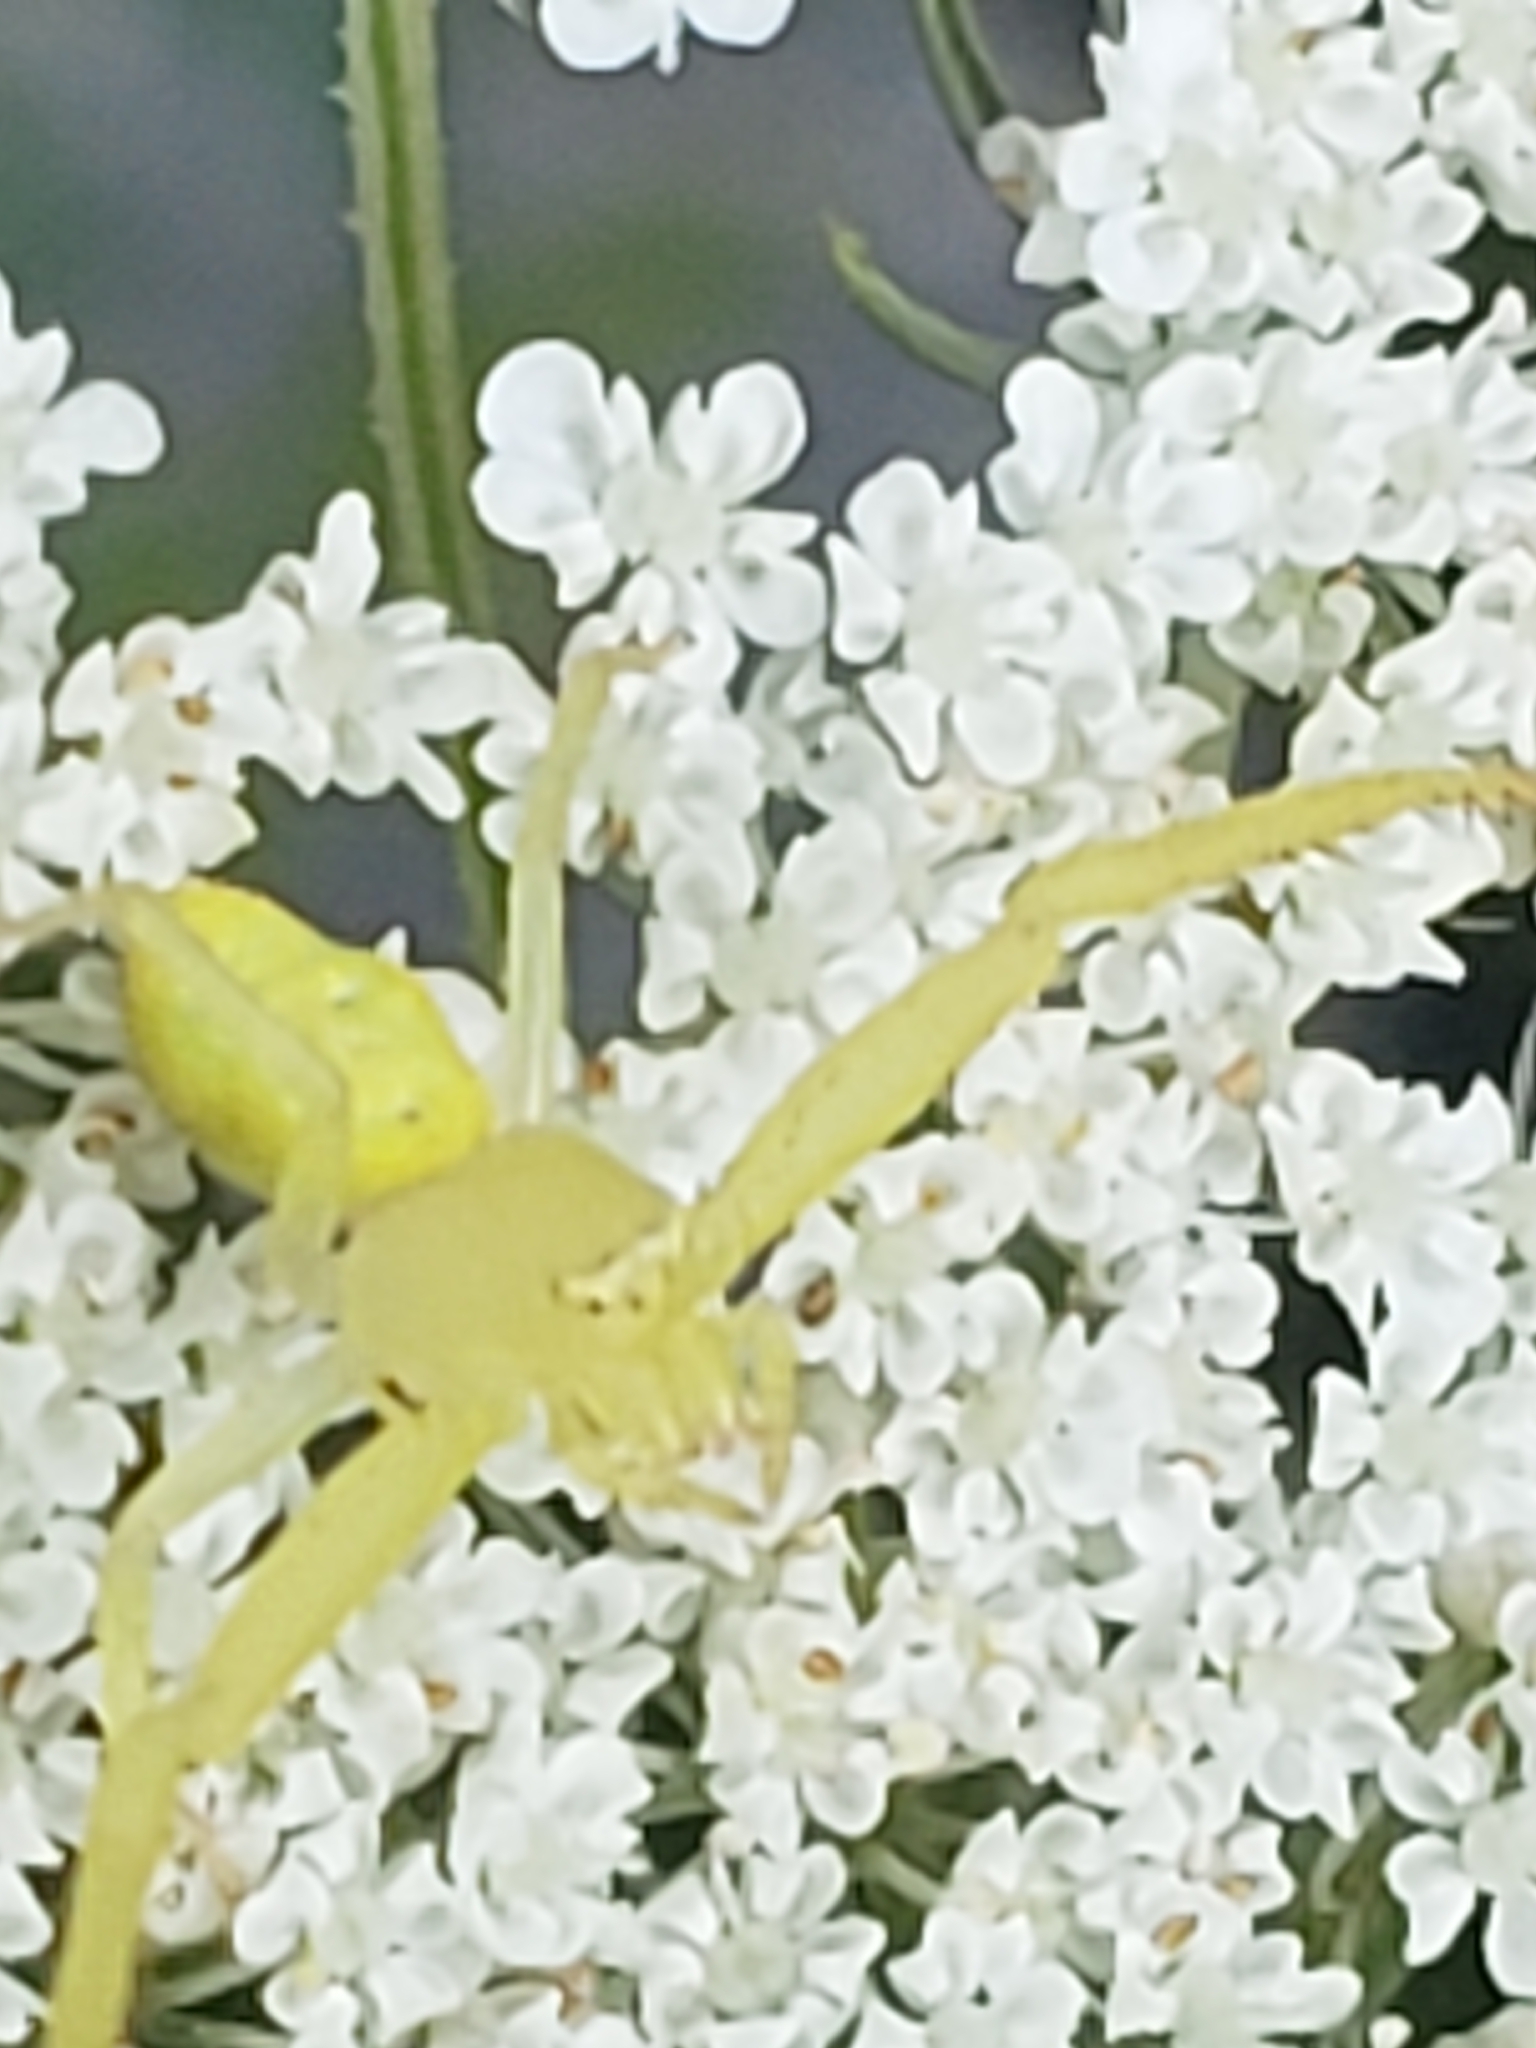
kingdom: Animalia
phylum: Arthropoda
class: Arachnida
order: Araneae
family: Thomisidae
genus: Misumessus
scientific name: Misumessus oblongus
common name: American green crab spider
